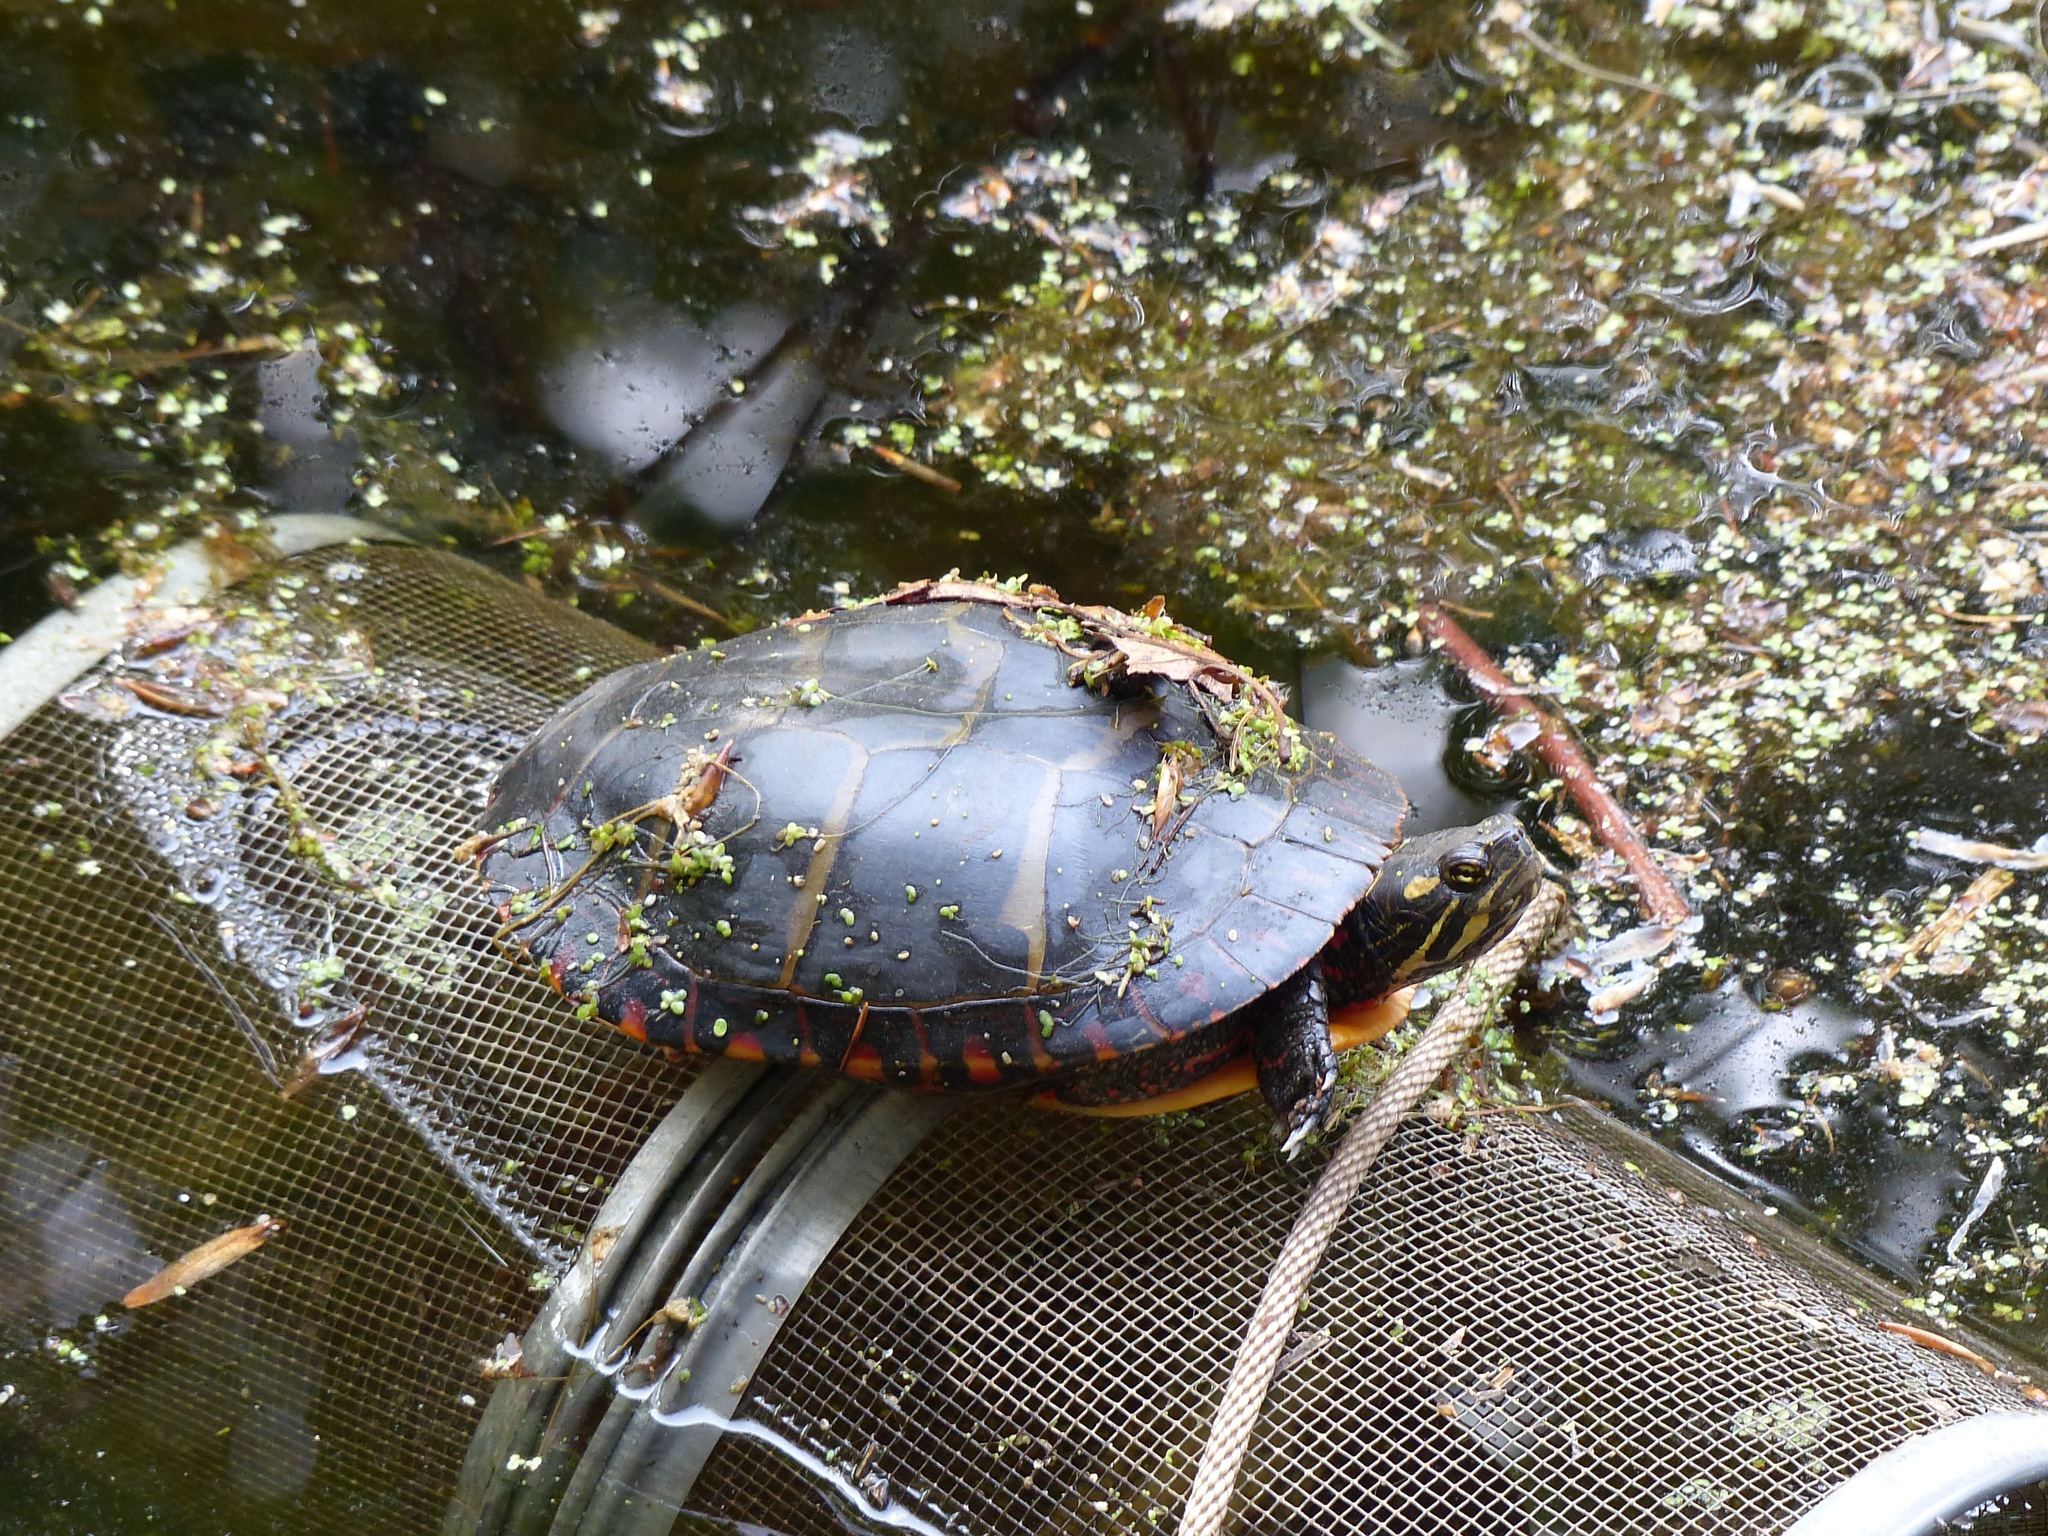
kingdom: Animalia
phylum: Chordata
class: Testudines
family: Emydidae
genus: Chrysemys
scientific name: Chrysemys picta
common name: Painted turtle
